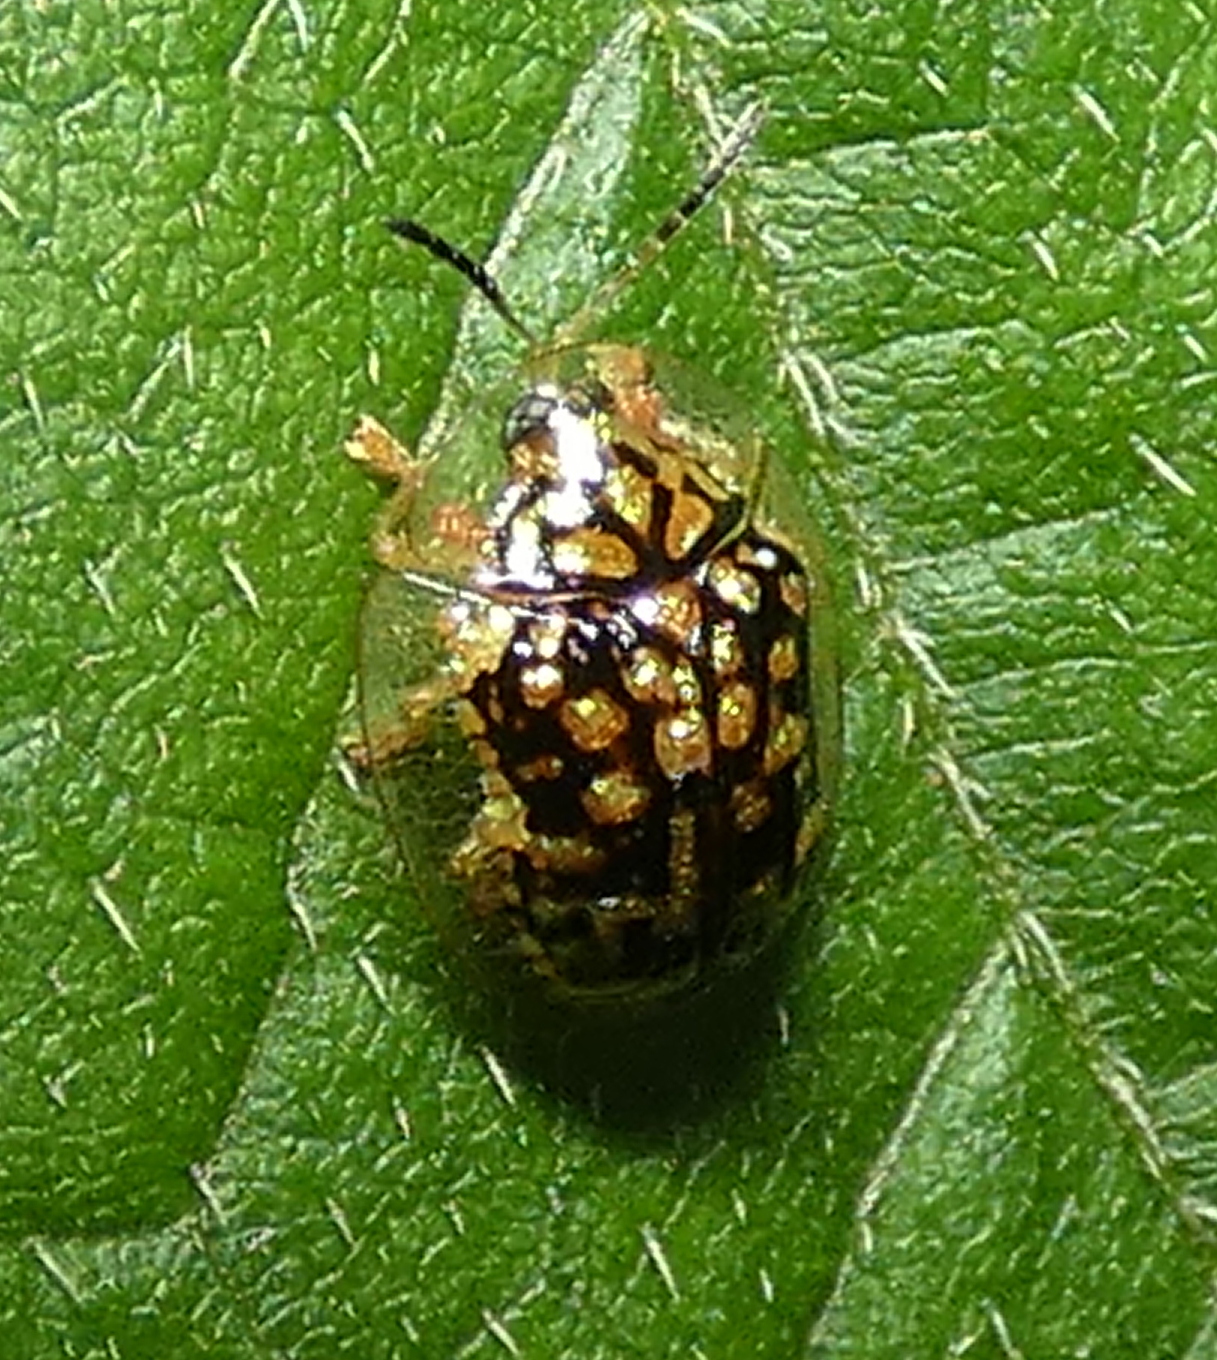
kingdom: Animalia
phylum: Arthropoda
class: Insecta
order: Coleoptera
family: Chrysomelidae
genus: Cteisella
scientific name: Cteisella guttigera
